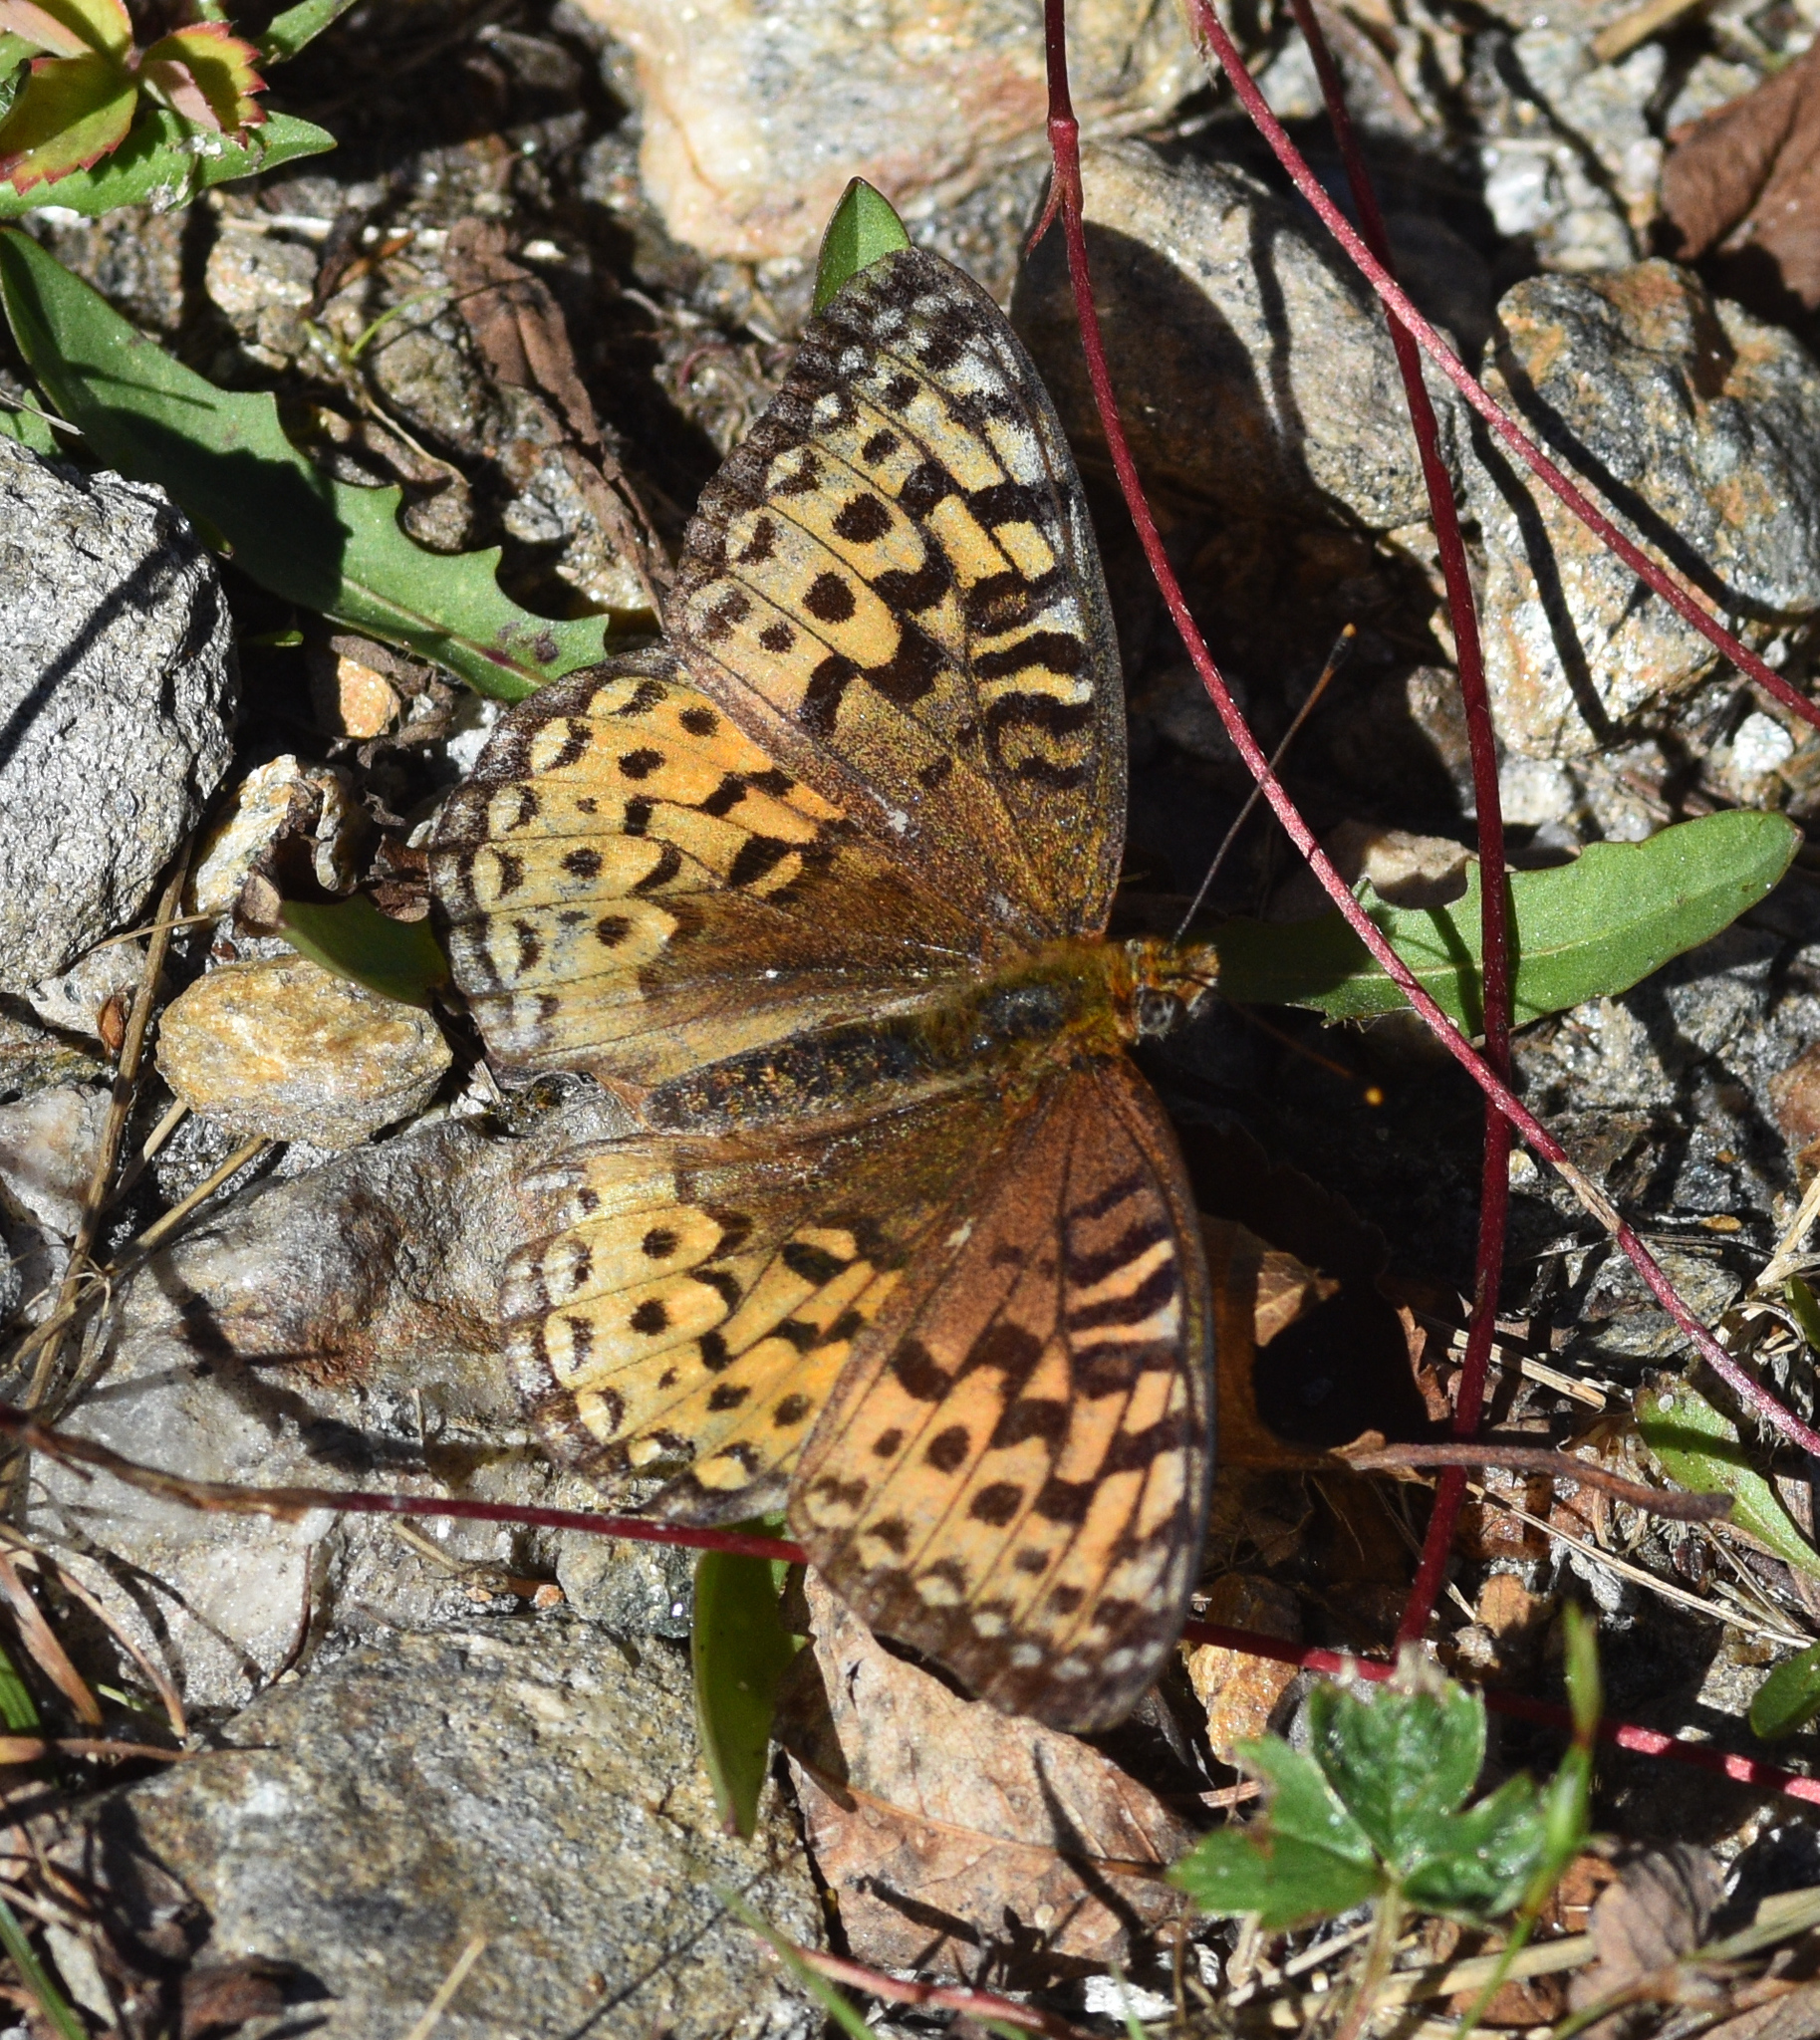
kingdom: Animalia
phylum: Arthropoda
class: Insecta
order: Lepidoptera
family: Nymphalidae
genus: Speyeria
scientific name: Speyeria atlantis
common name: Atlantis fritillary
